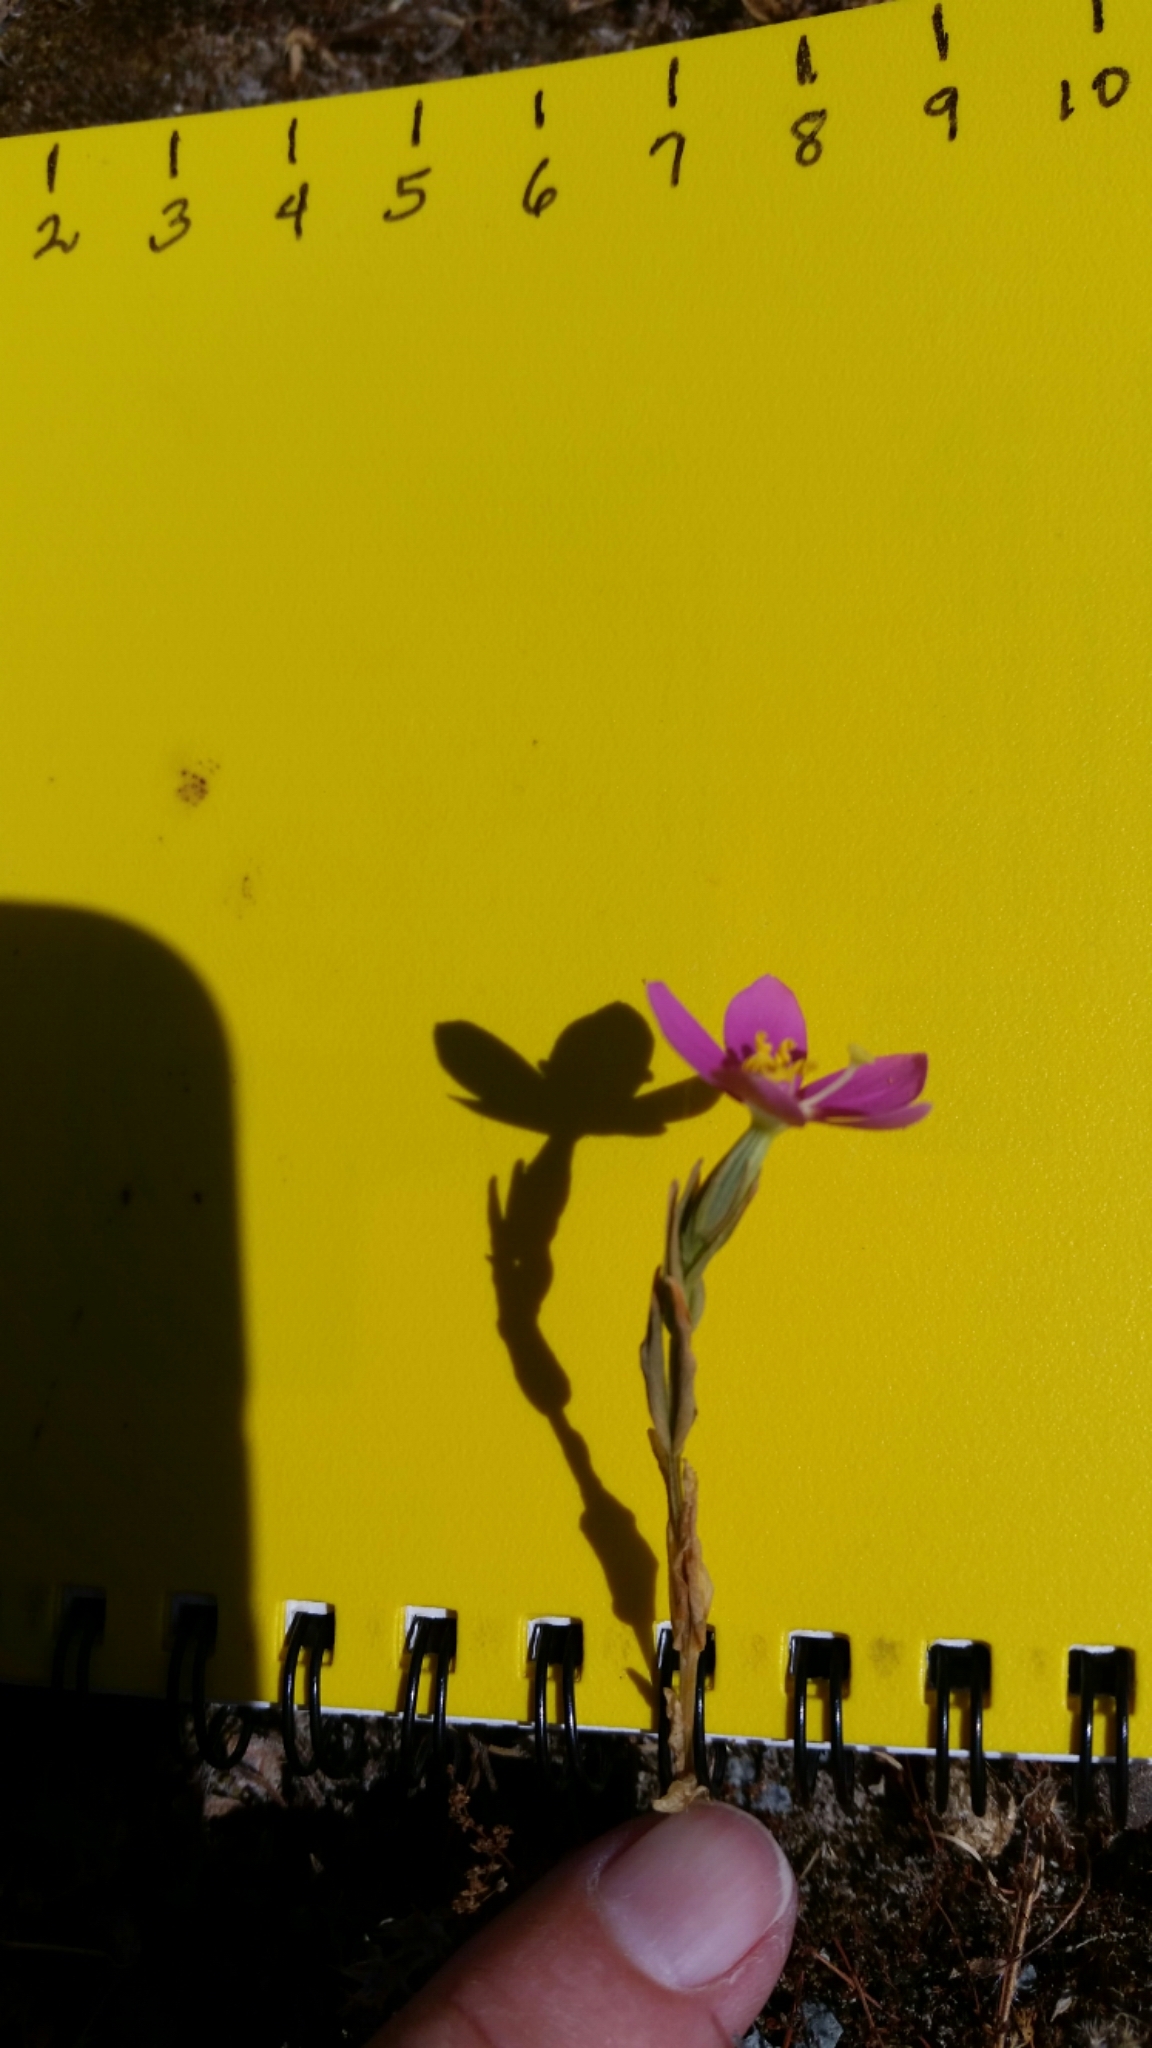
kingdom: Plantae
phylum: Tracheophyta
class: Magnoliopsida
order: Gentianales
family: Gentianaceae
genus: Zeltnera
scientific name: Zeltnera venusta
